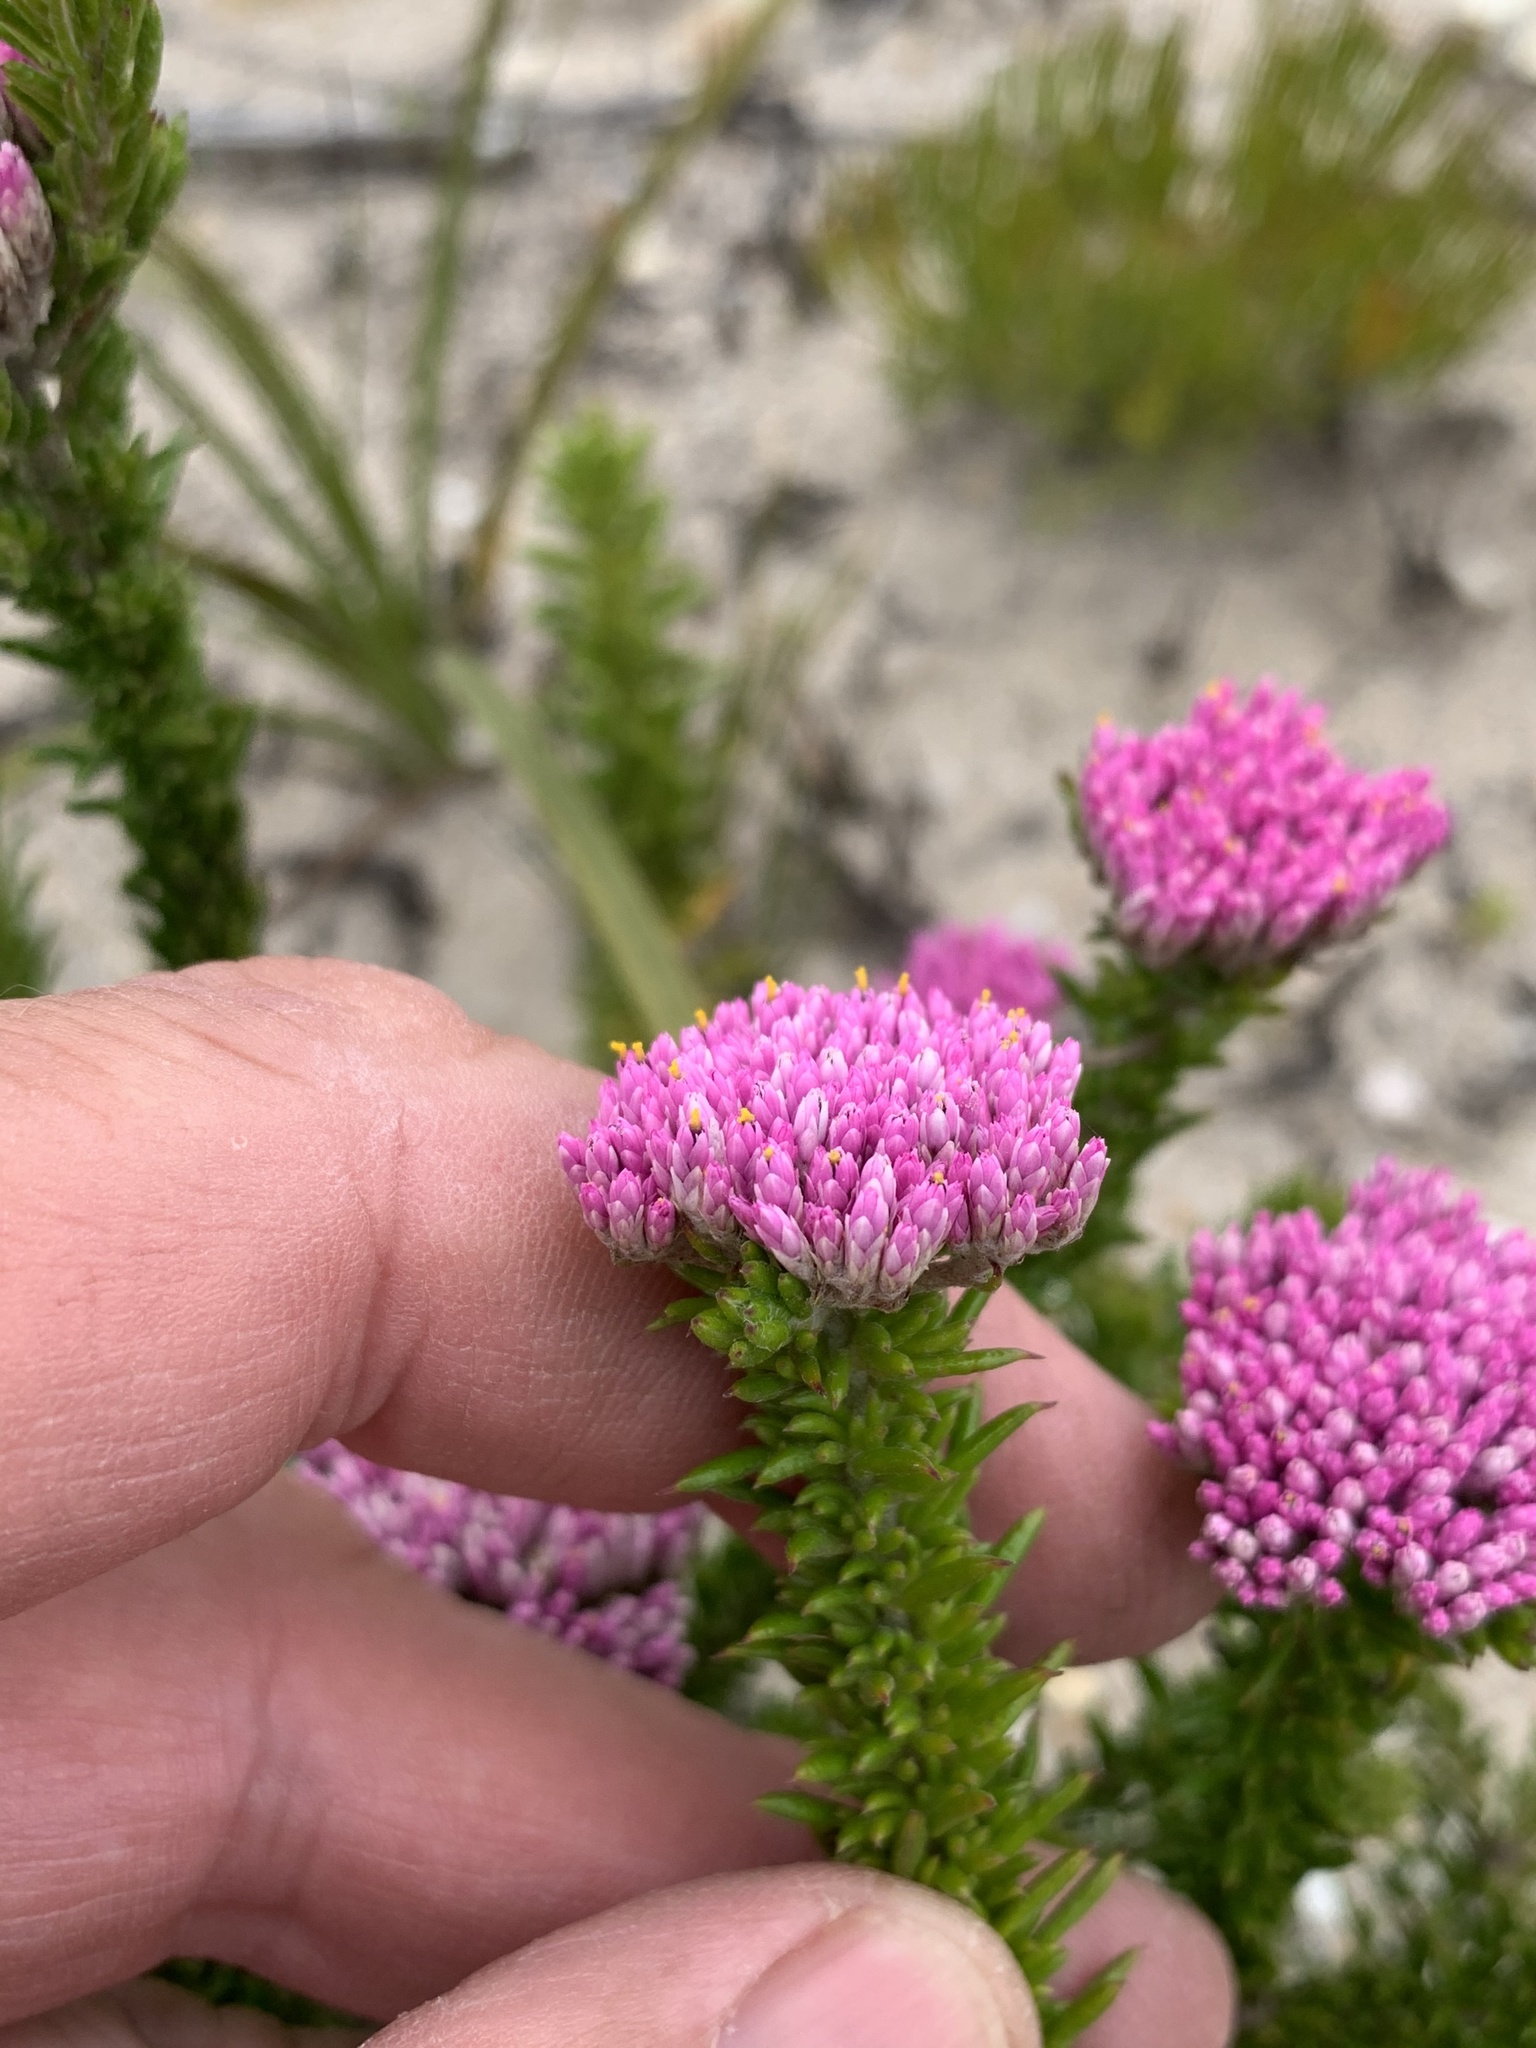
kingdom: Plantae
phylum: Tracheophyta
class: Magnoliopsida
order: Asterales
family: Asteraceae
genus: Metalasia
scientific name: Metalasia erubescens
